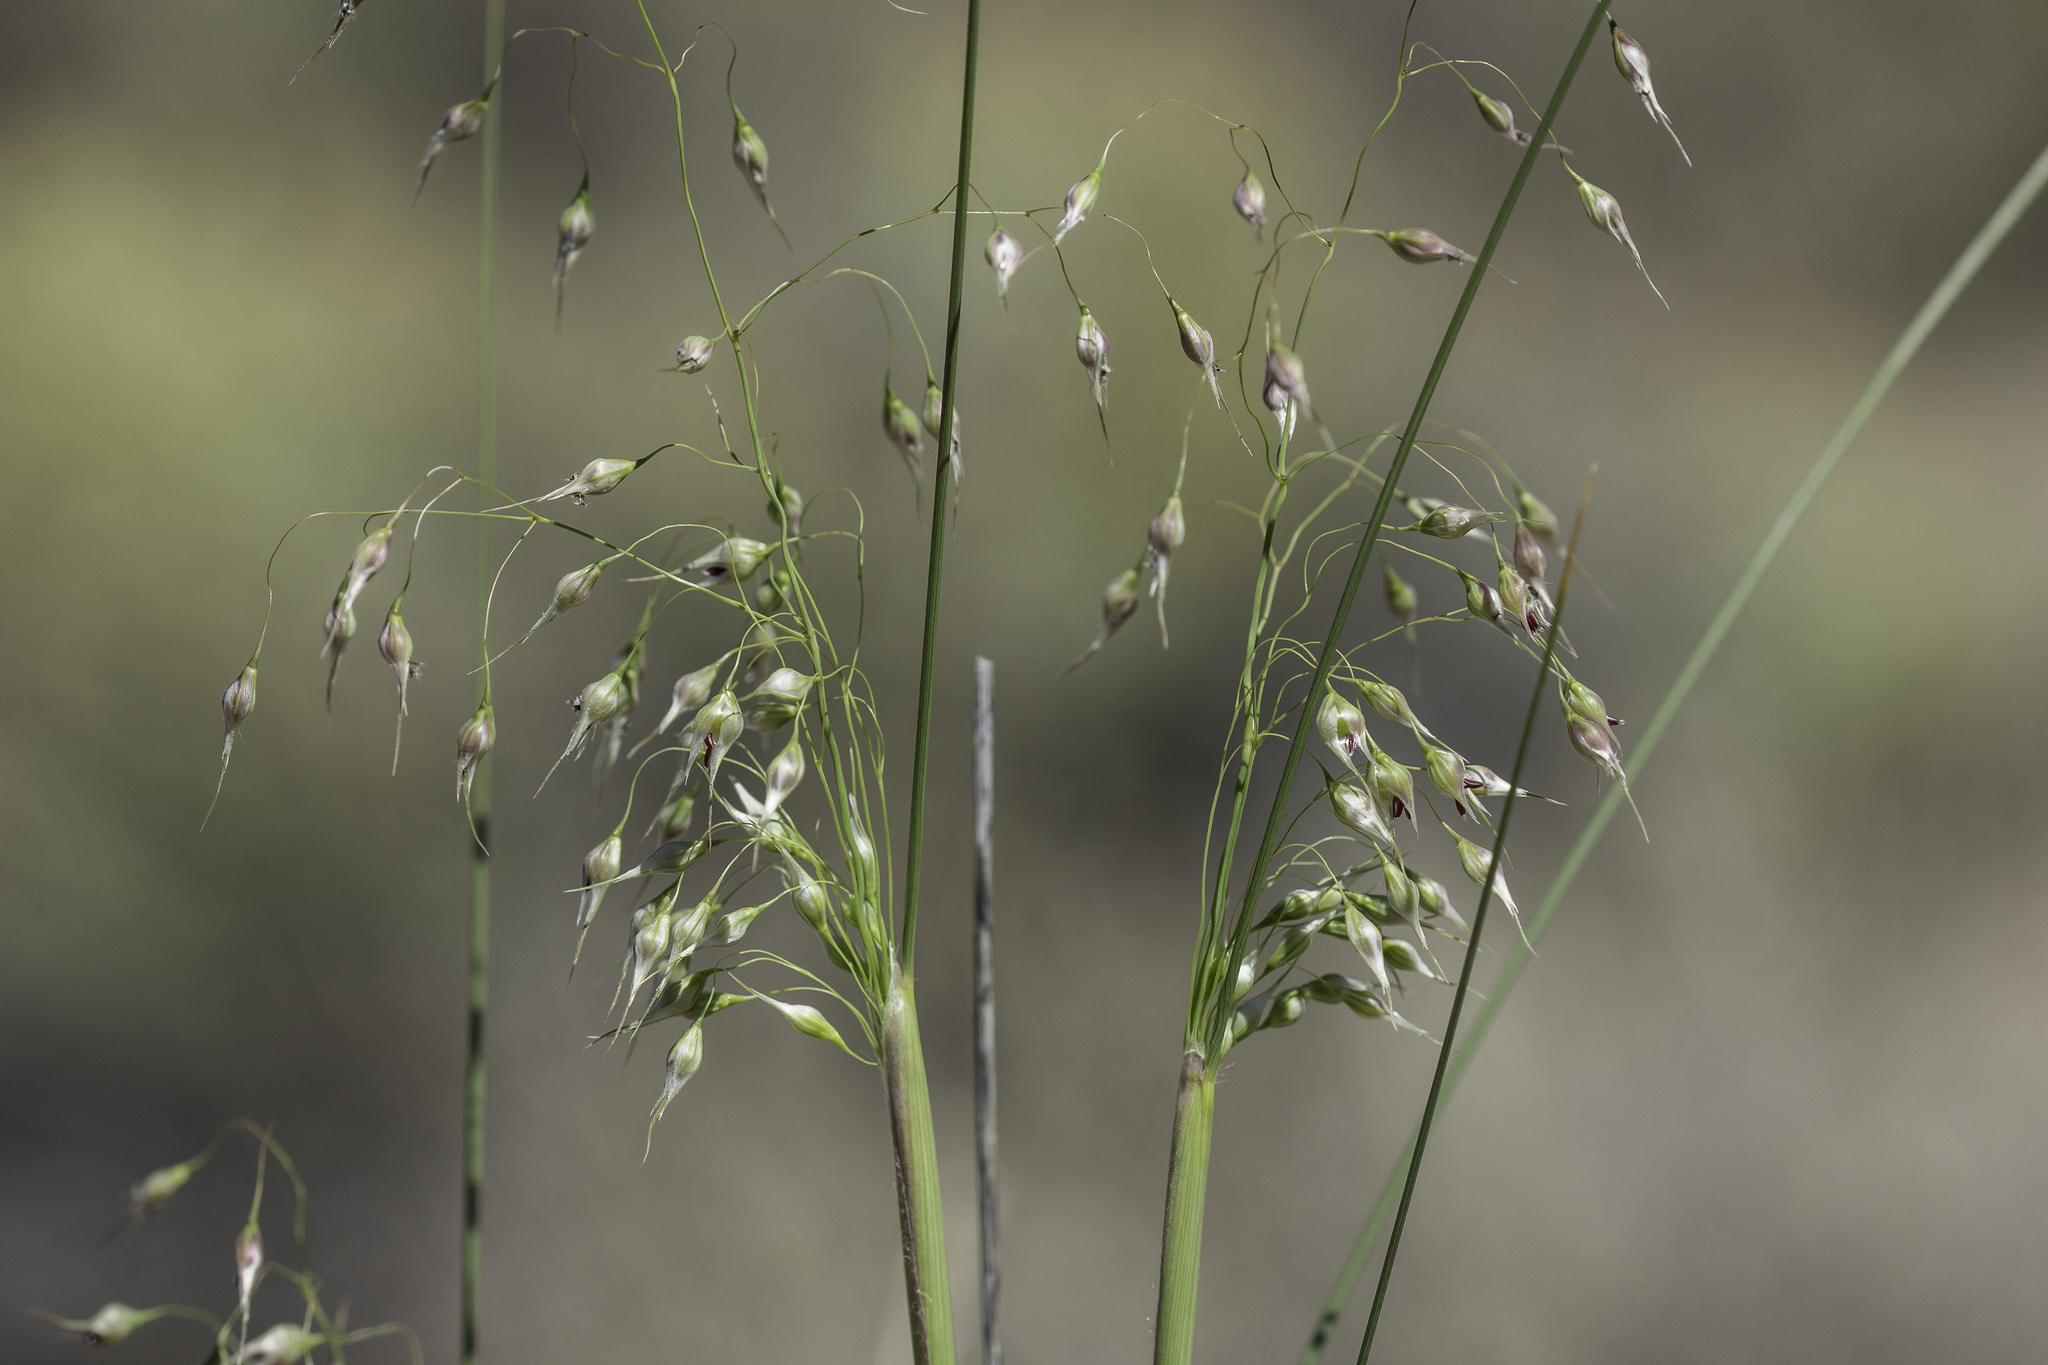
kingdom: Plantae
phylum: Tracheophyta
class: Liliopsida
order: Poales
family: Poaceae
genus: Eriocoma
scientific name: Eriocoma hymenoides
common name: Indian mountain ricegrass
